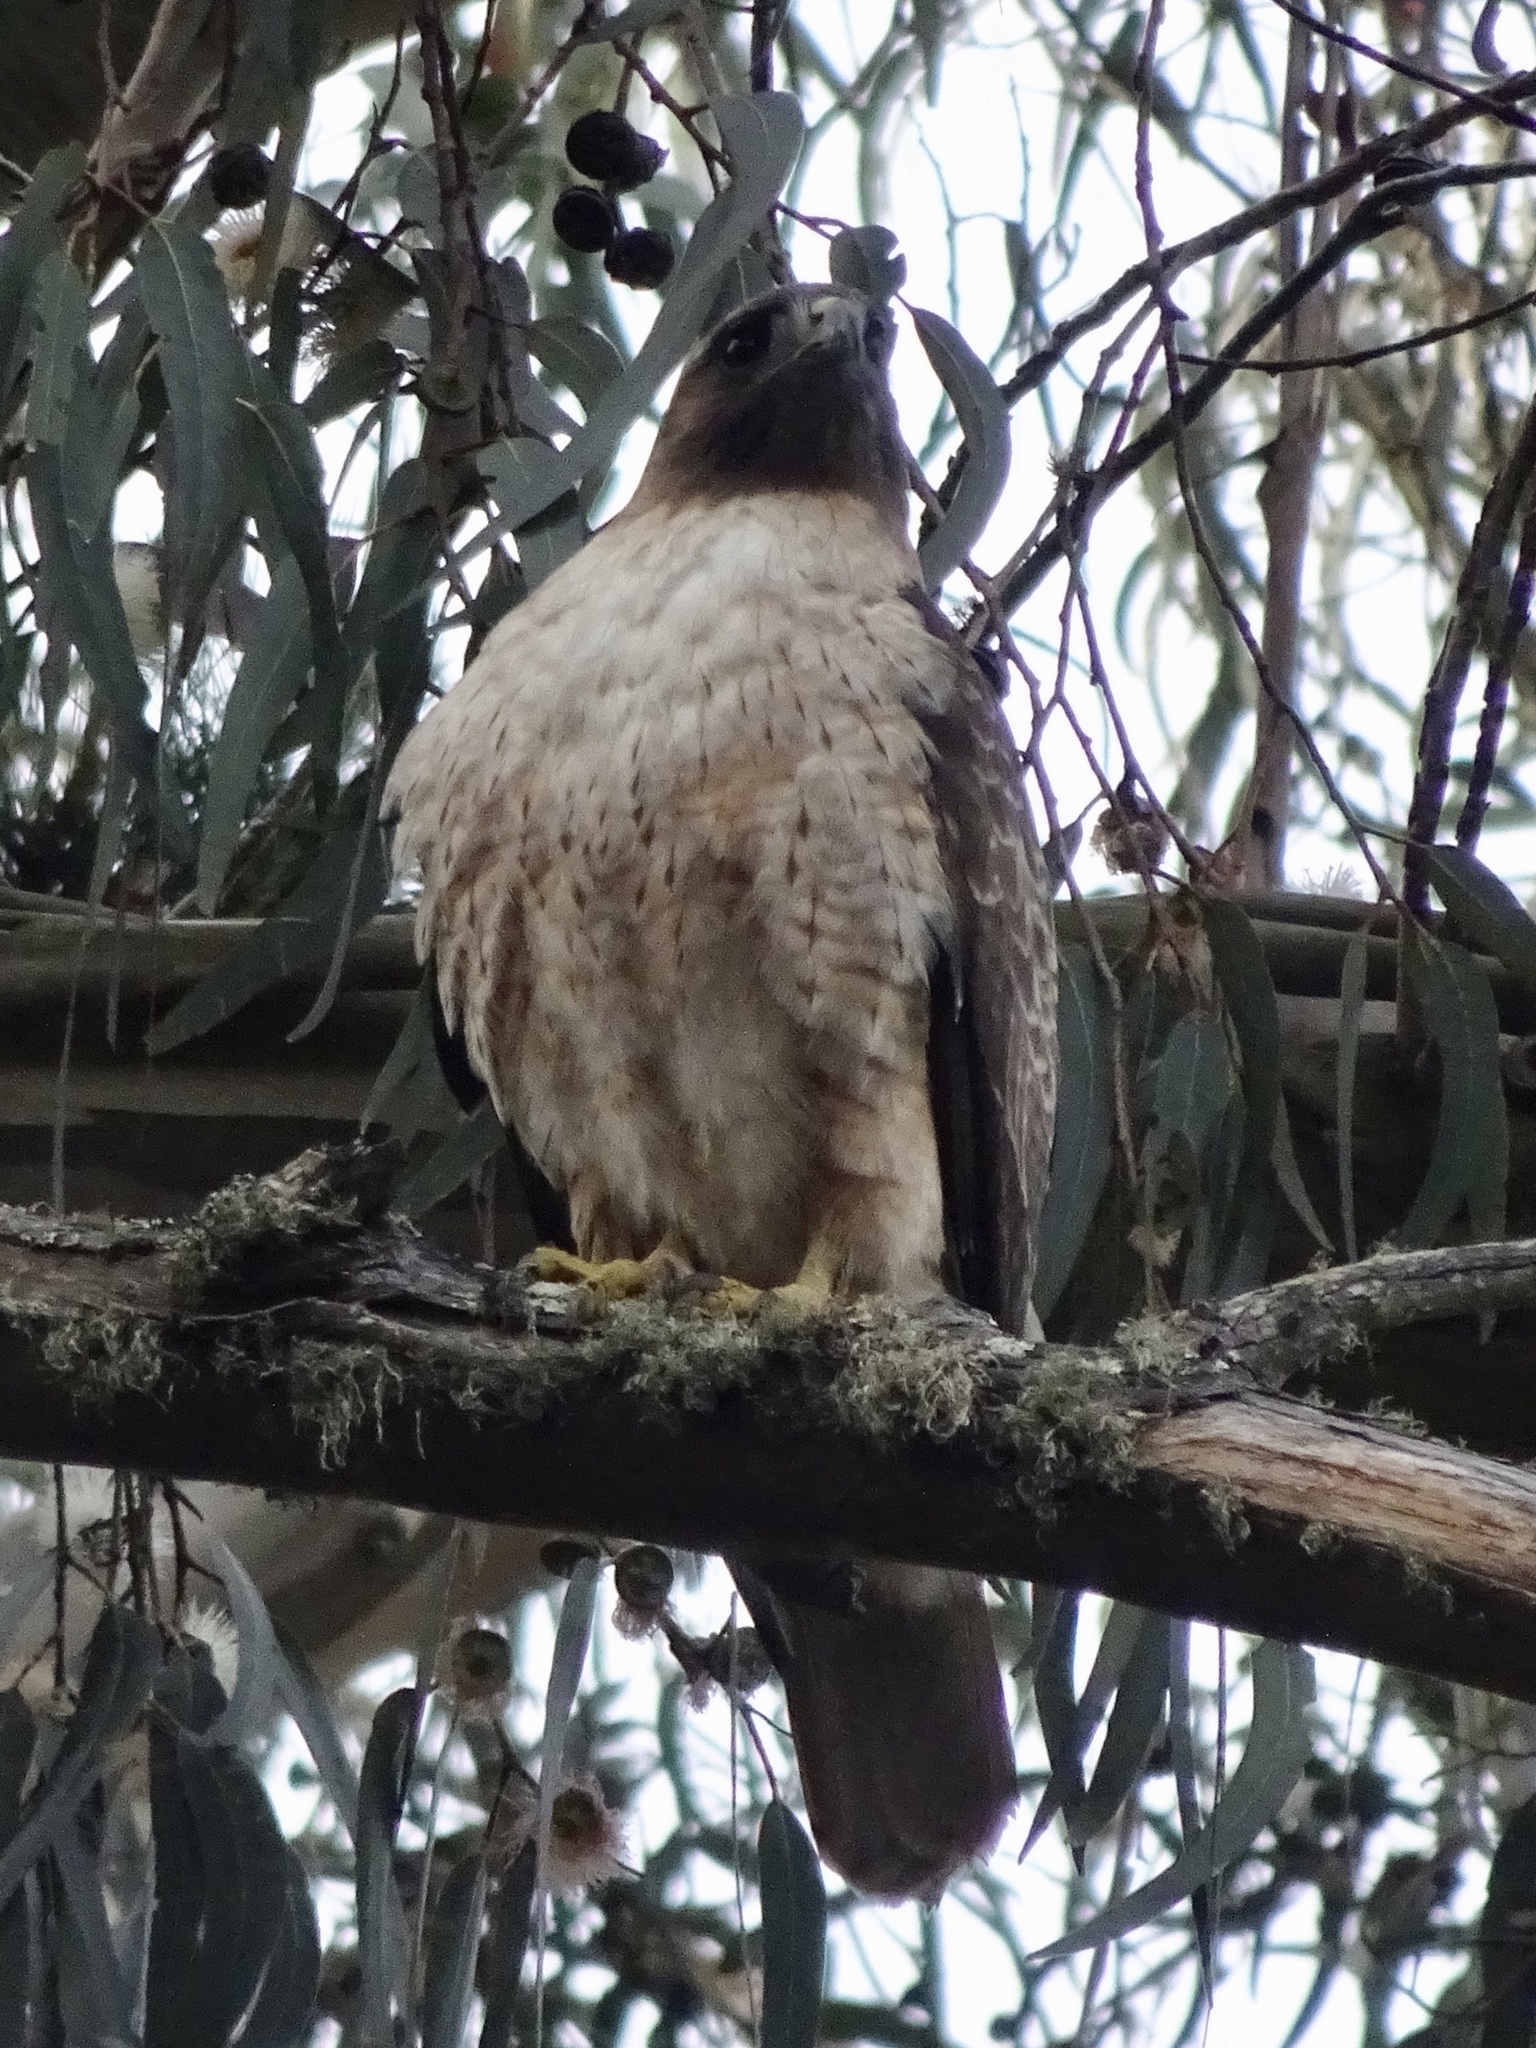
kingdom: Animalia
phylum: Chordata
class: Aves
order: Accipitriformes
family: Accipitridae
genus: Buteo
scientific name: Buteo jamaicensis
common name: Red-tailed hawk
